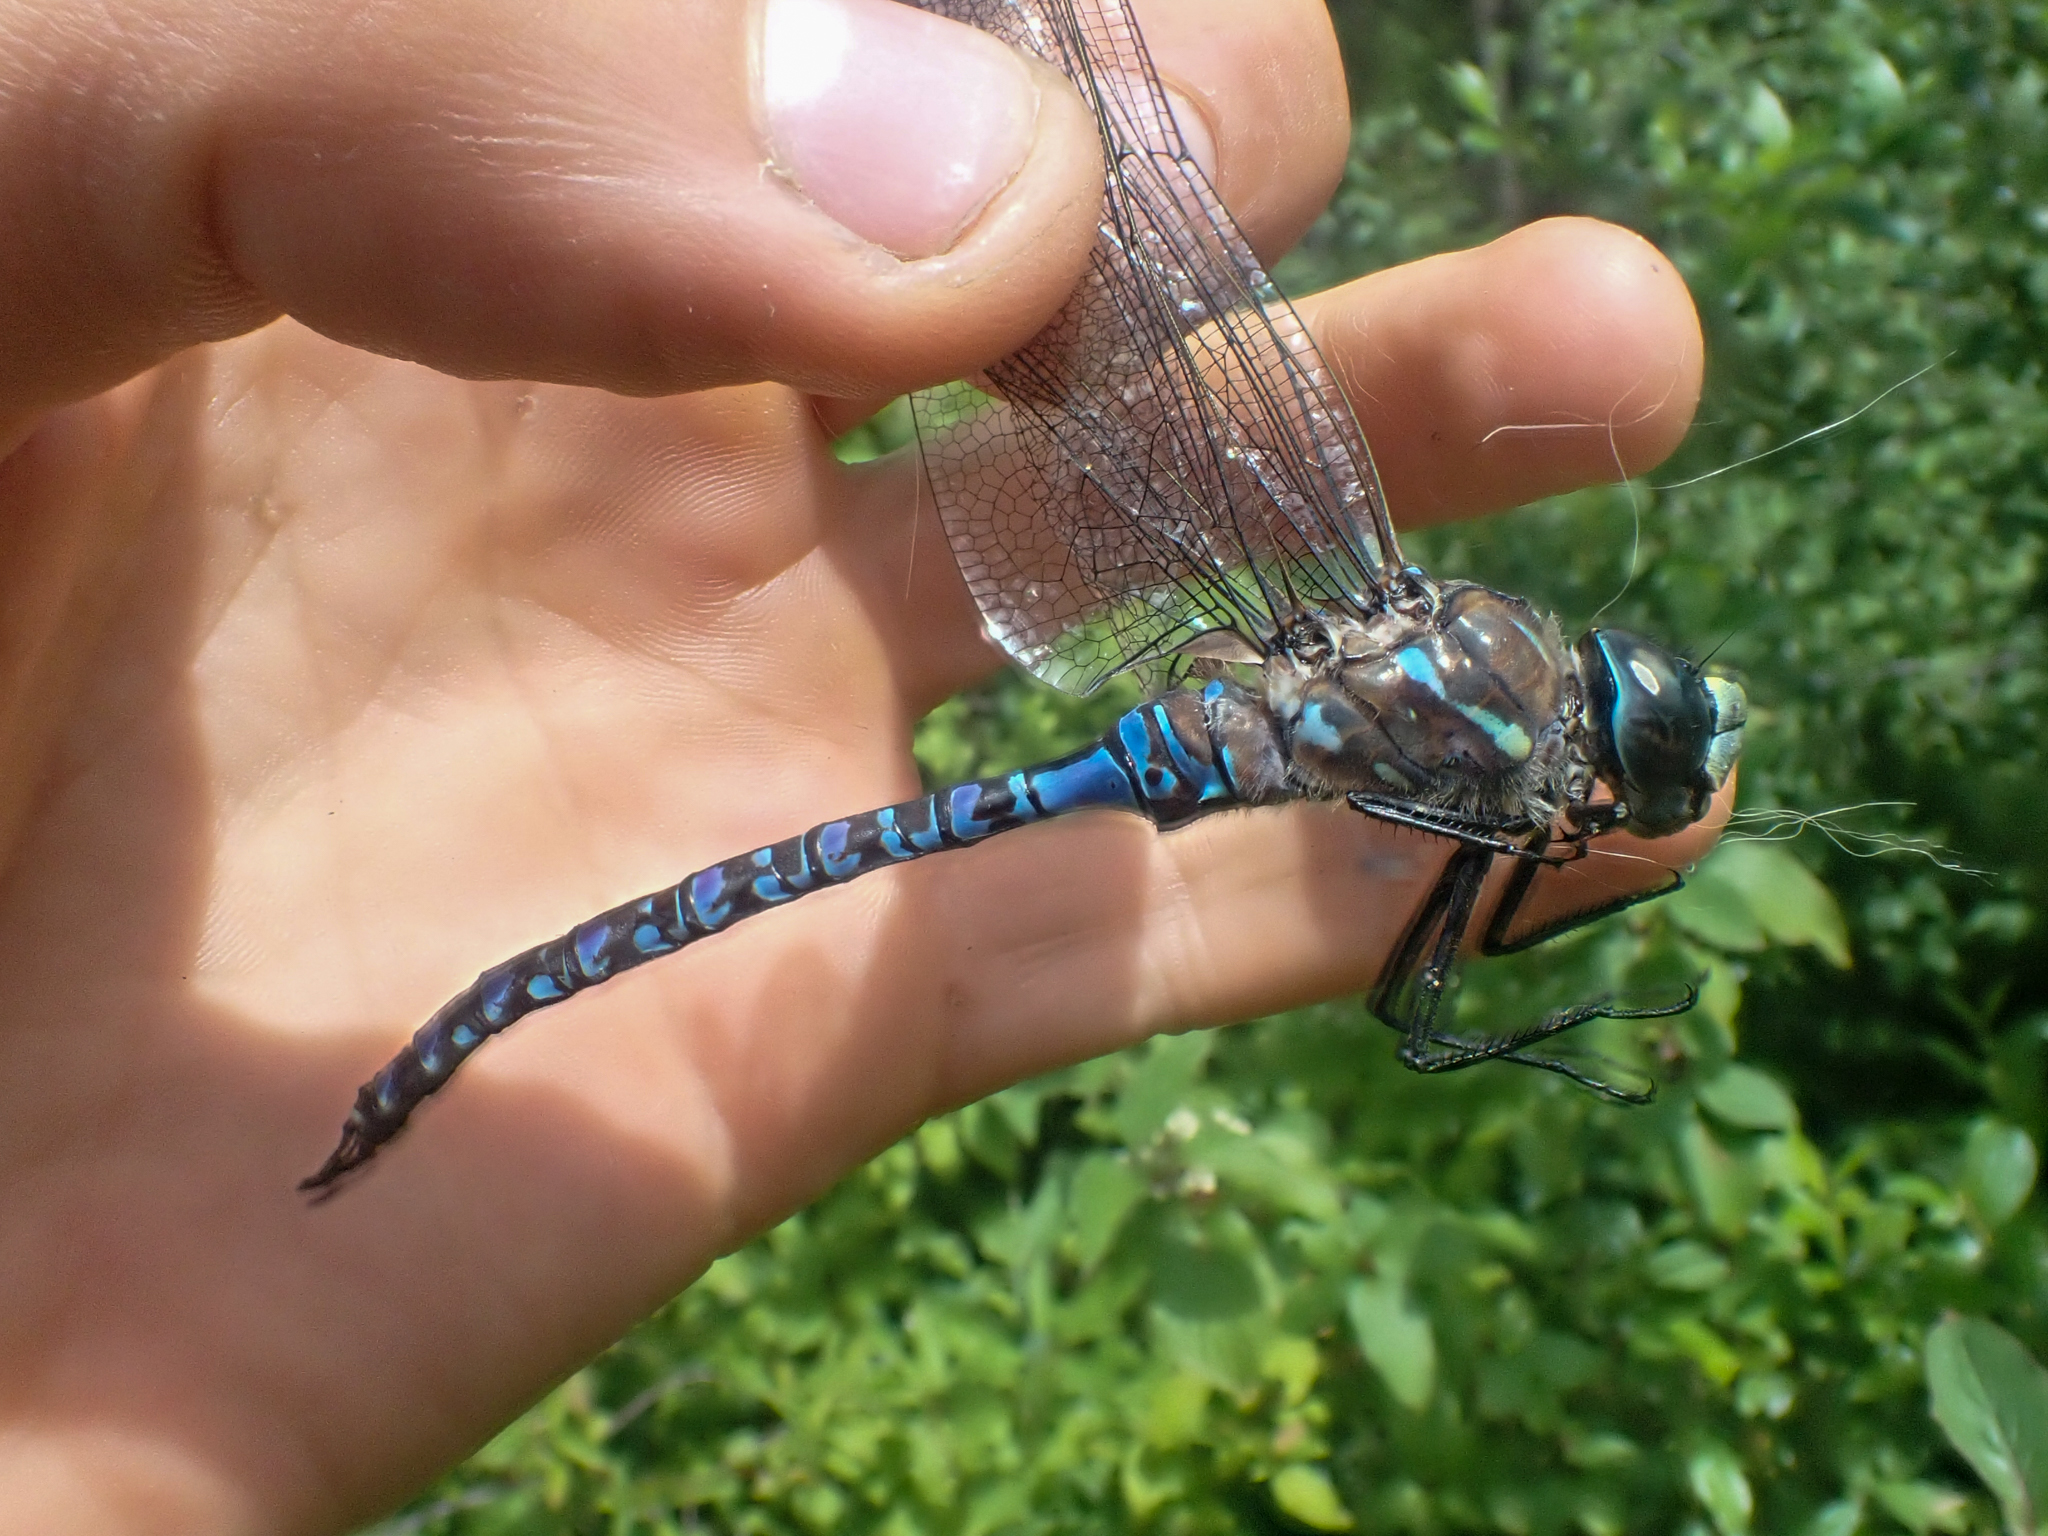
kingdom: Animalia
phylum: Arthropoda
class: Insecta
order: Odonata
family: Aeshnidae
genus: Aeshna
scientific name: Aeshna interrupta
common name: Variable darner
